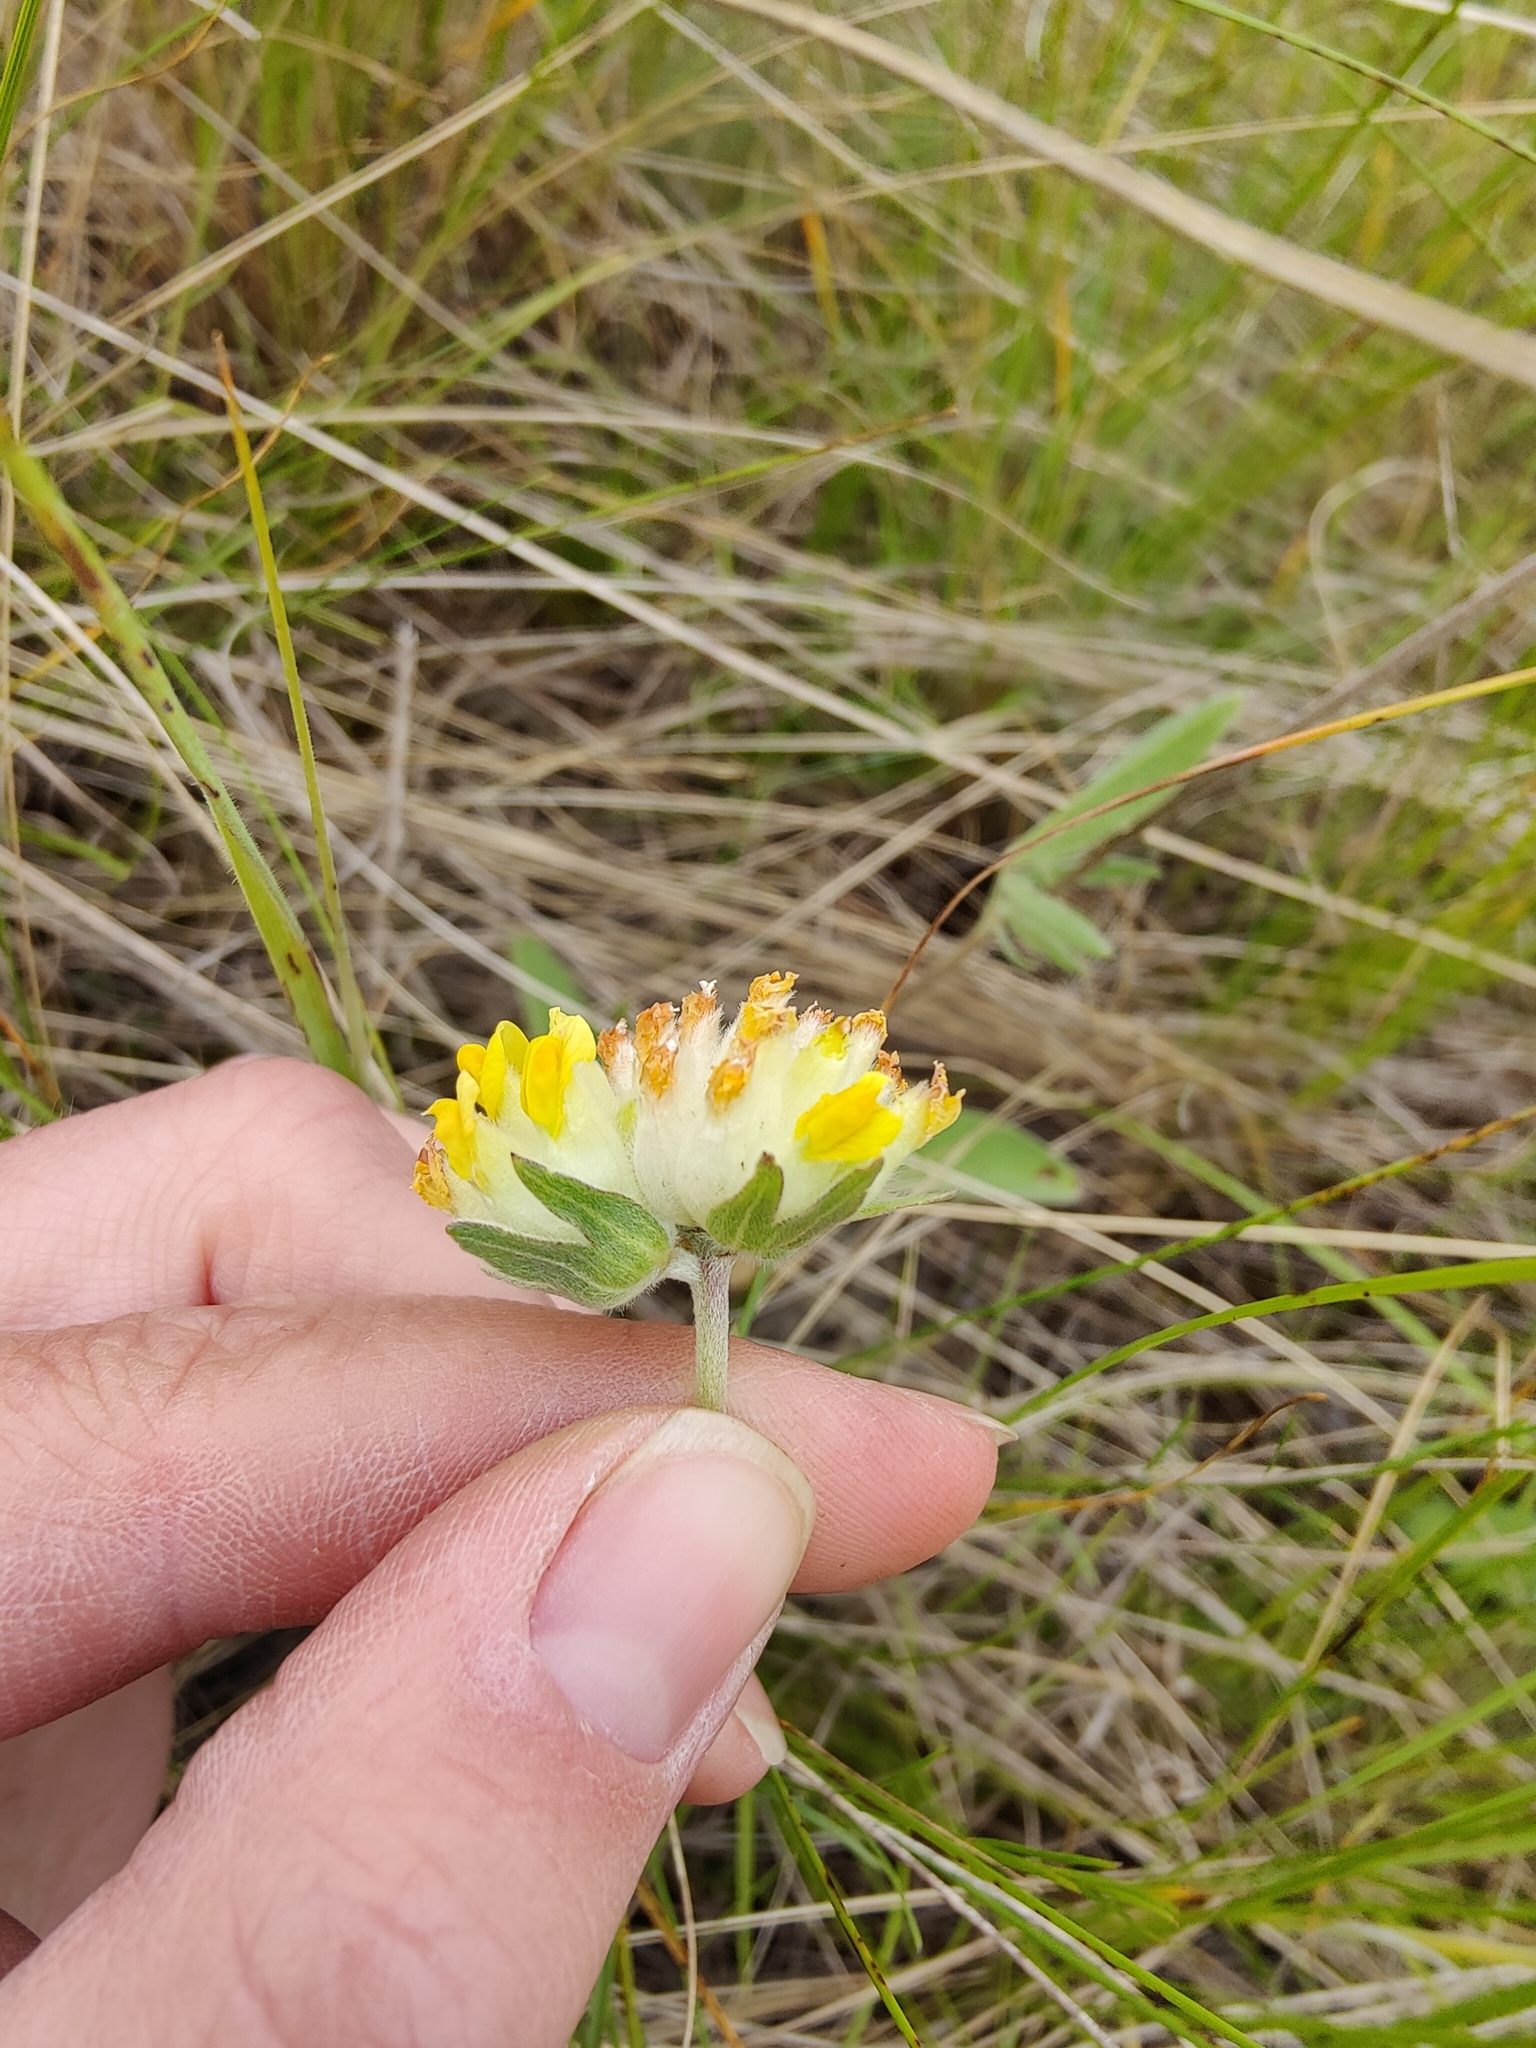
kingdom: Plantae
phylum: Tracheophyta
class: Magnoliopsida
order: Fabales
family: Fabaceae
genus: Anthyllis
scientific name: Anthyllis vulneraria
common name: Kidney vetch
